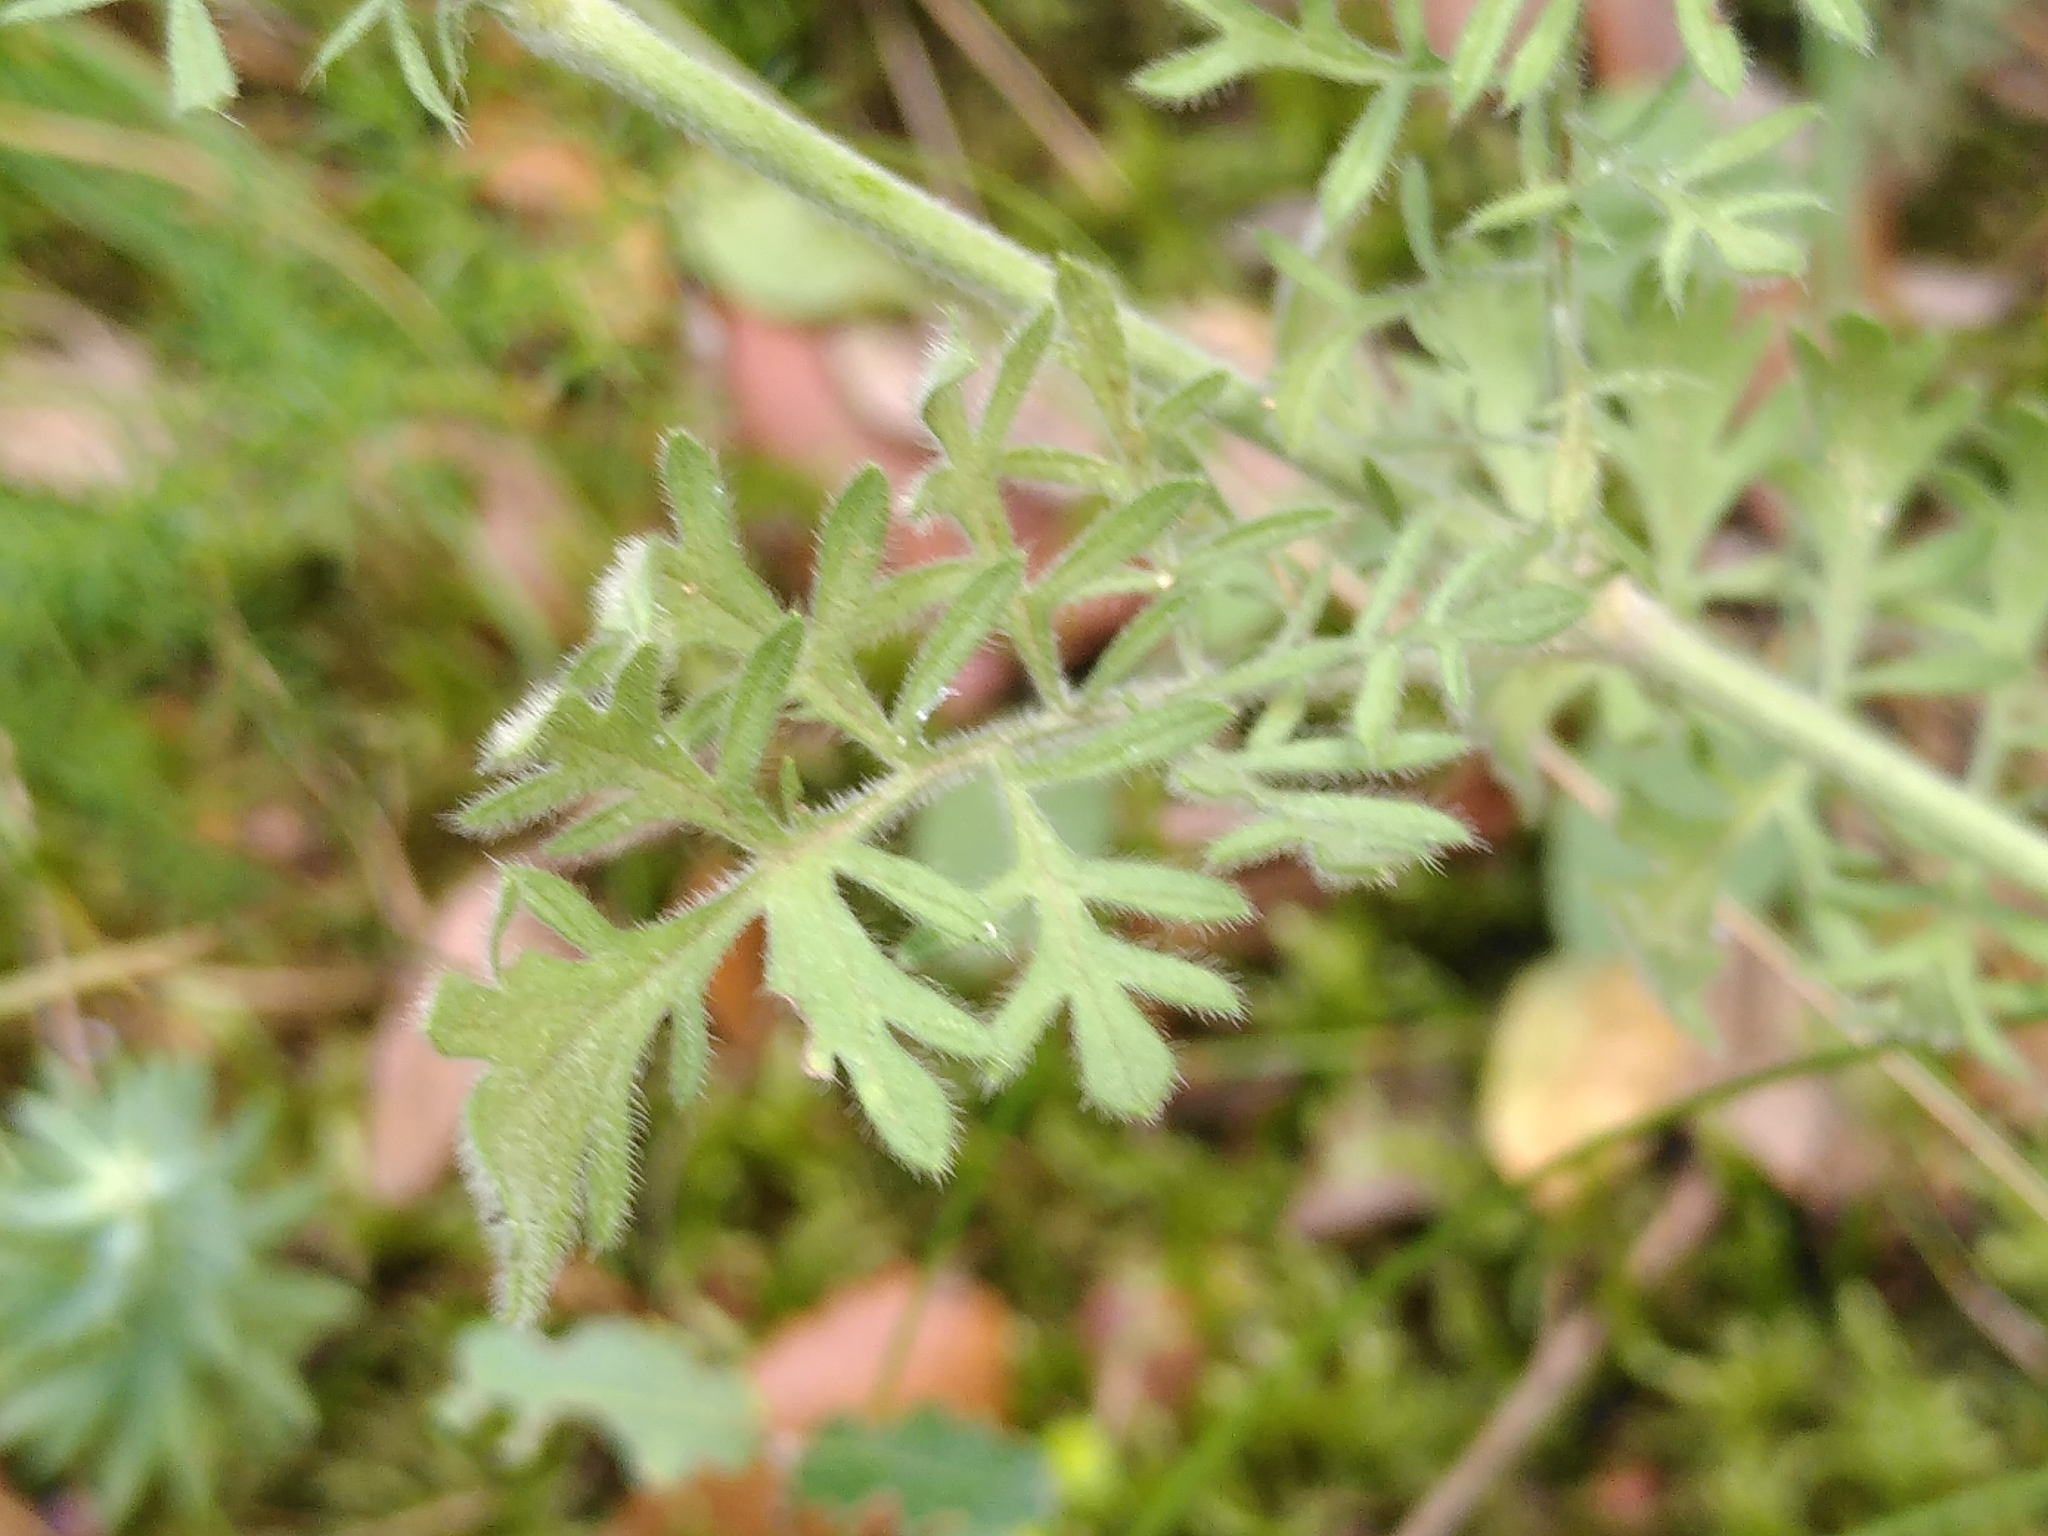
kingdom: Plantae
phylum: Tracheophyta
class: Magnoliopsida
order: Dipsacales
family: Caprifoliaceae
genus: Scabiosa
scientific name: Scabiosa triandra
